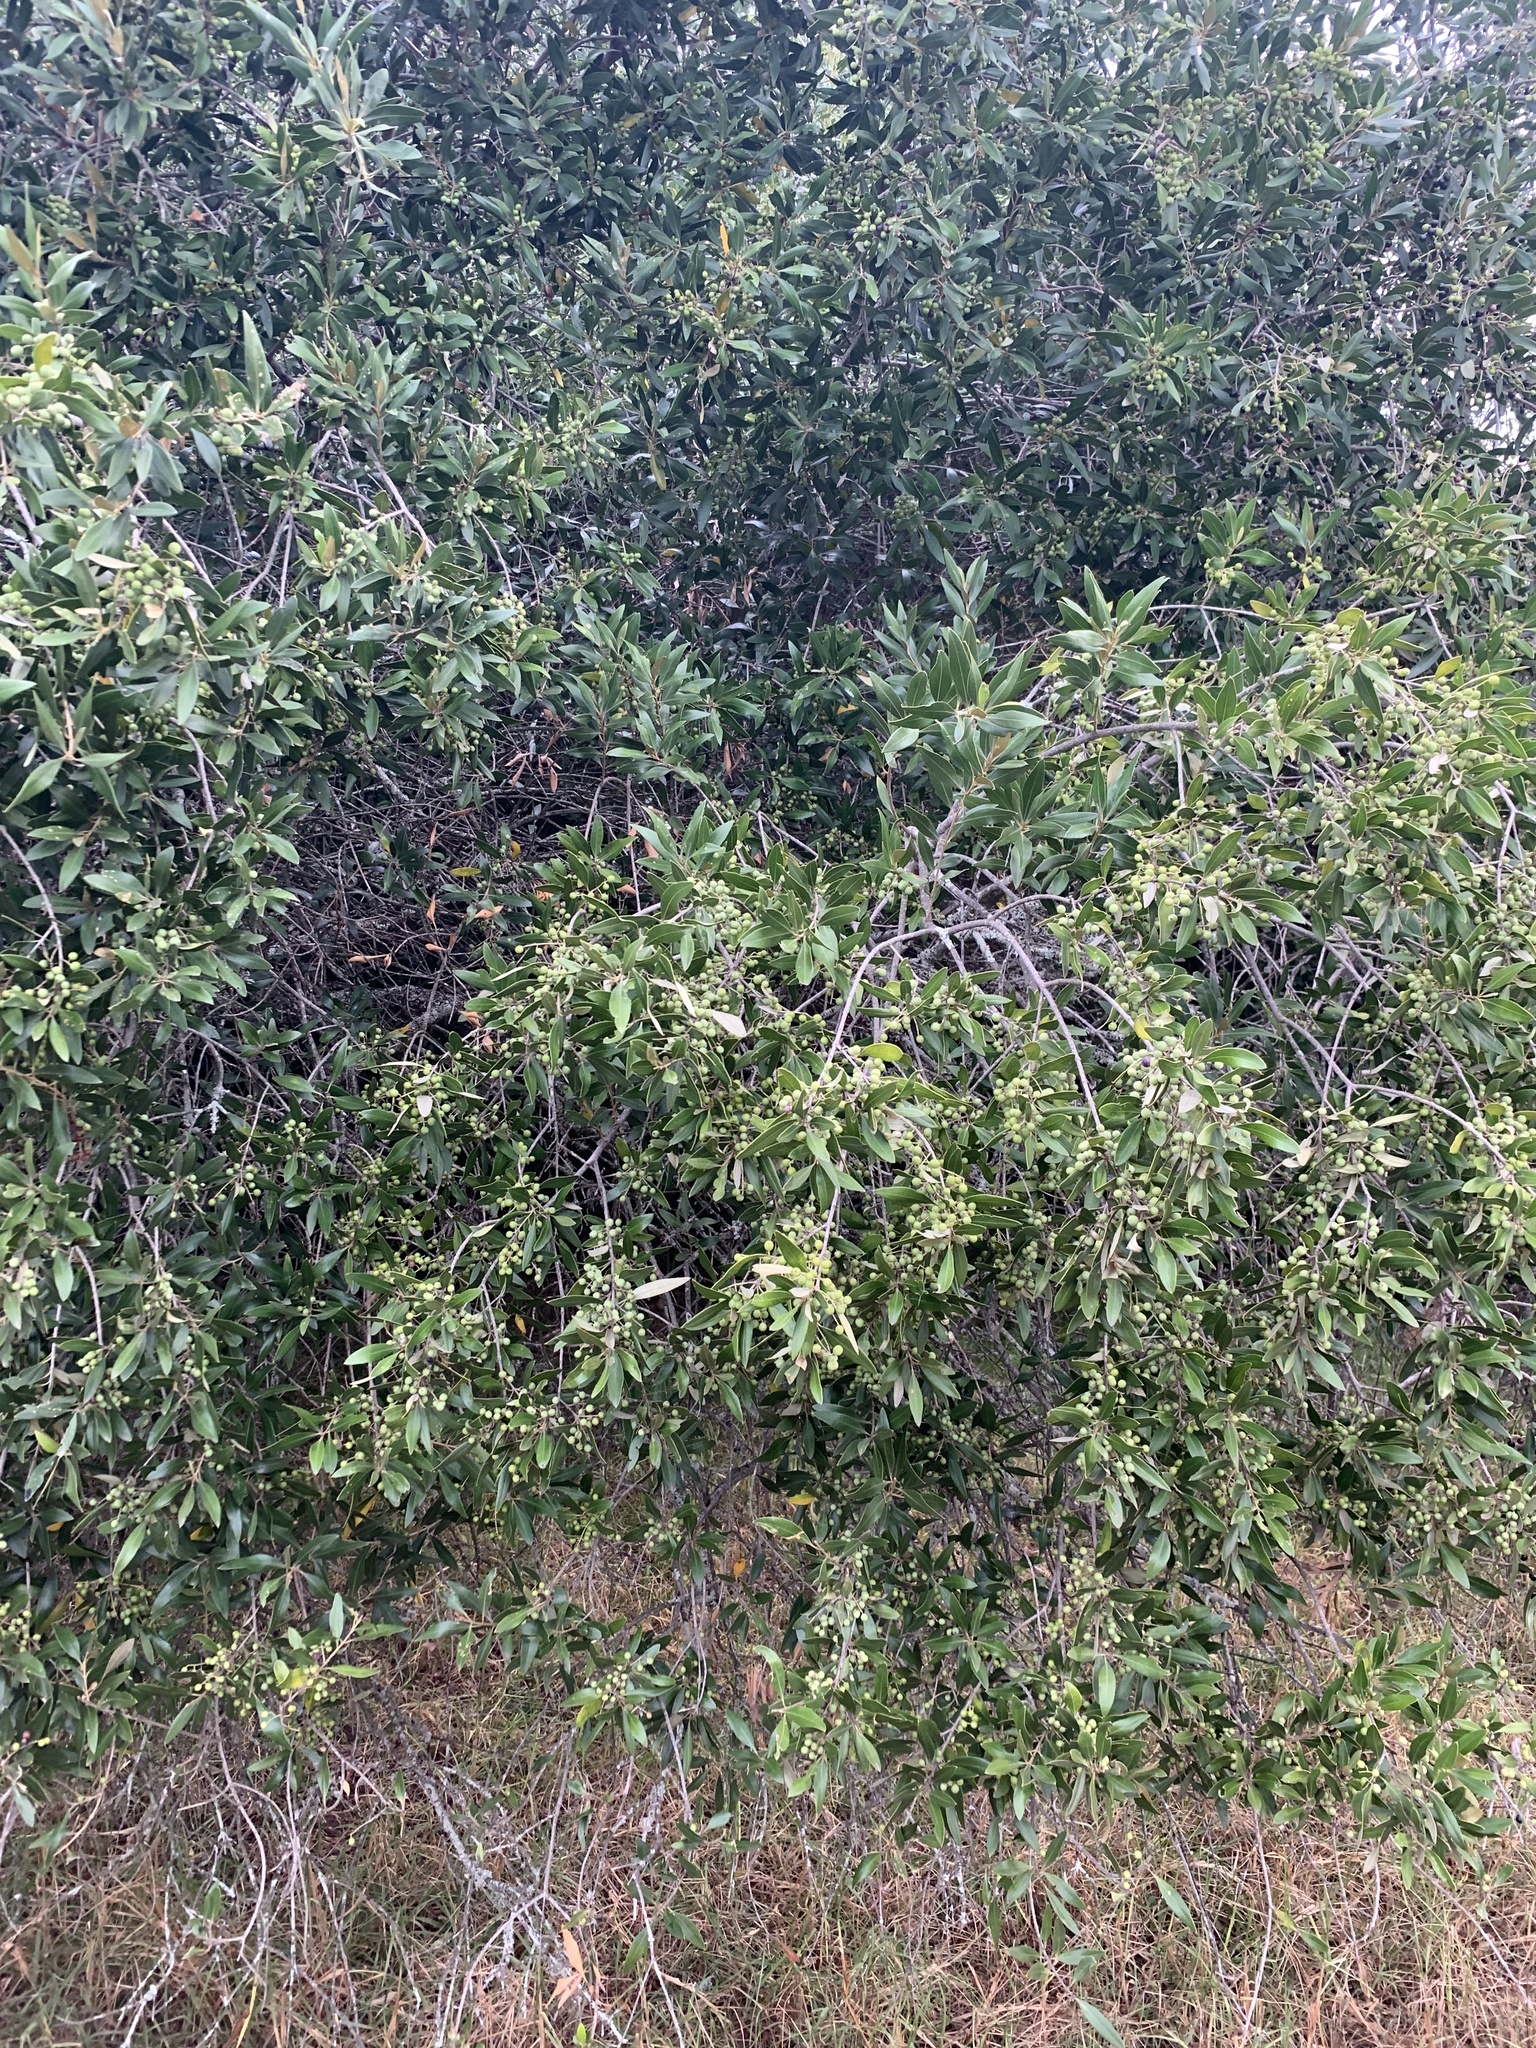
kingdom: Plantae
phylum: Tracheophyta
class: Magnoliopsida
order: Lamiales
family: Oleaceae
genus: Olea
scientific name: Olea europaea
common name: Olive
